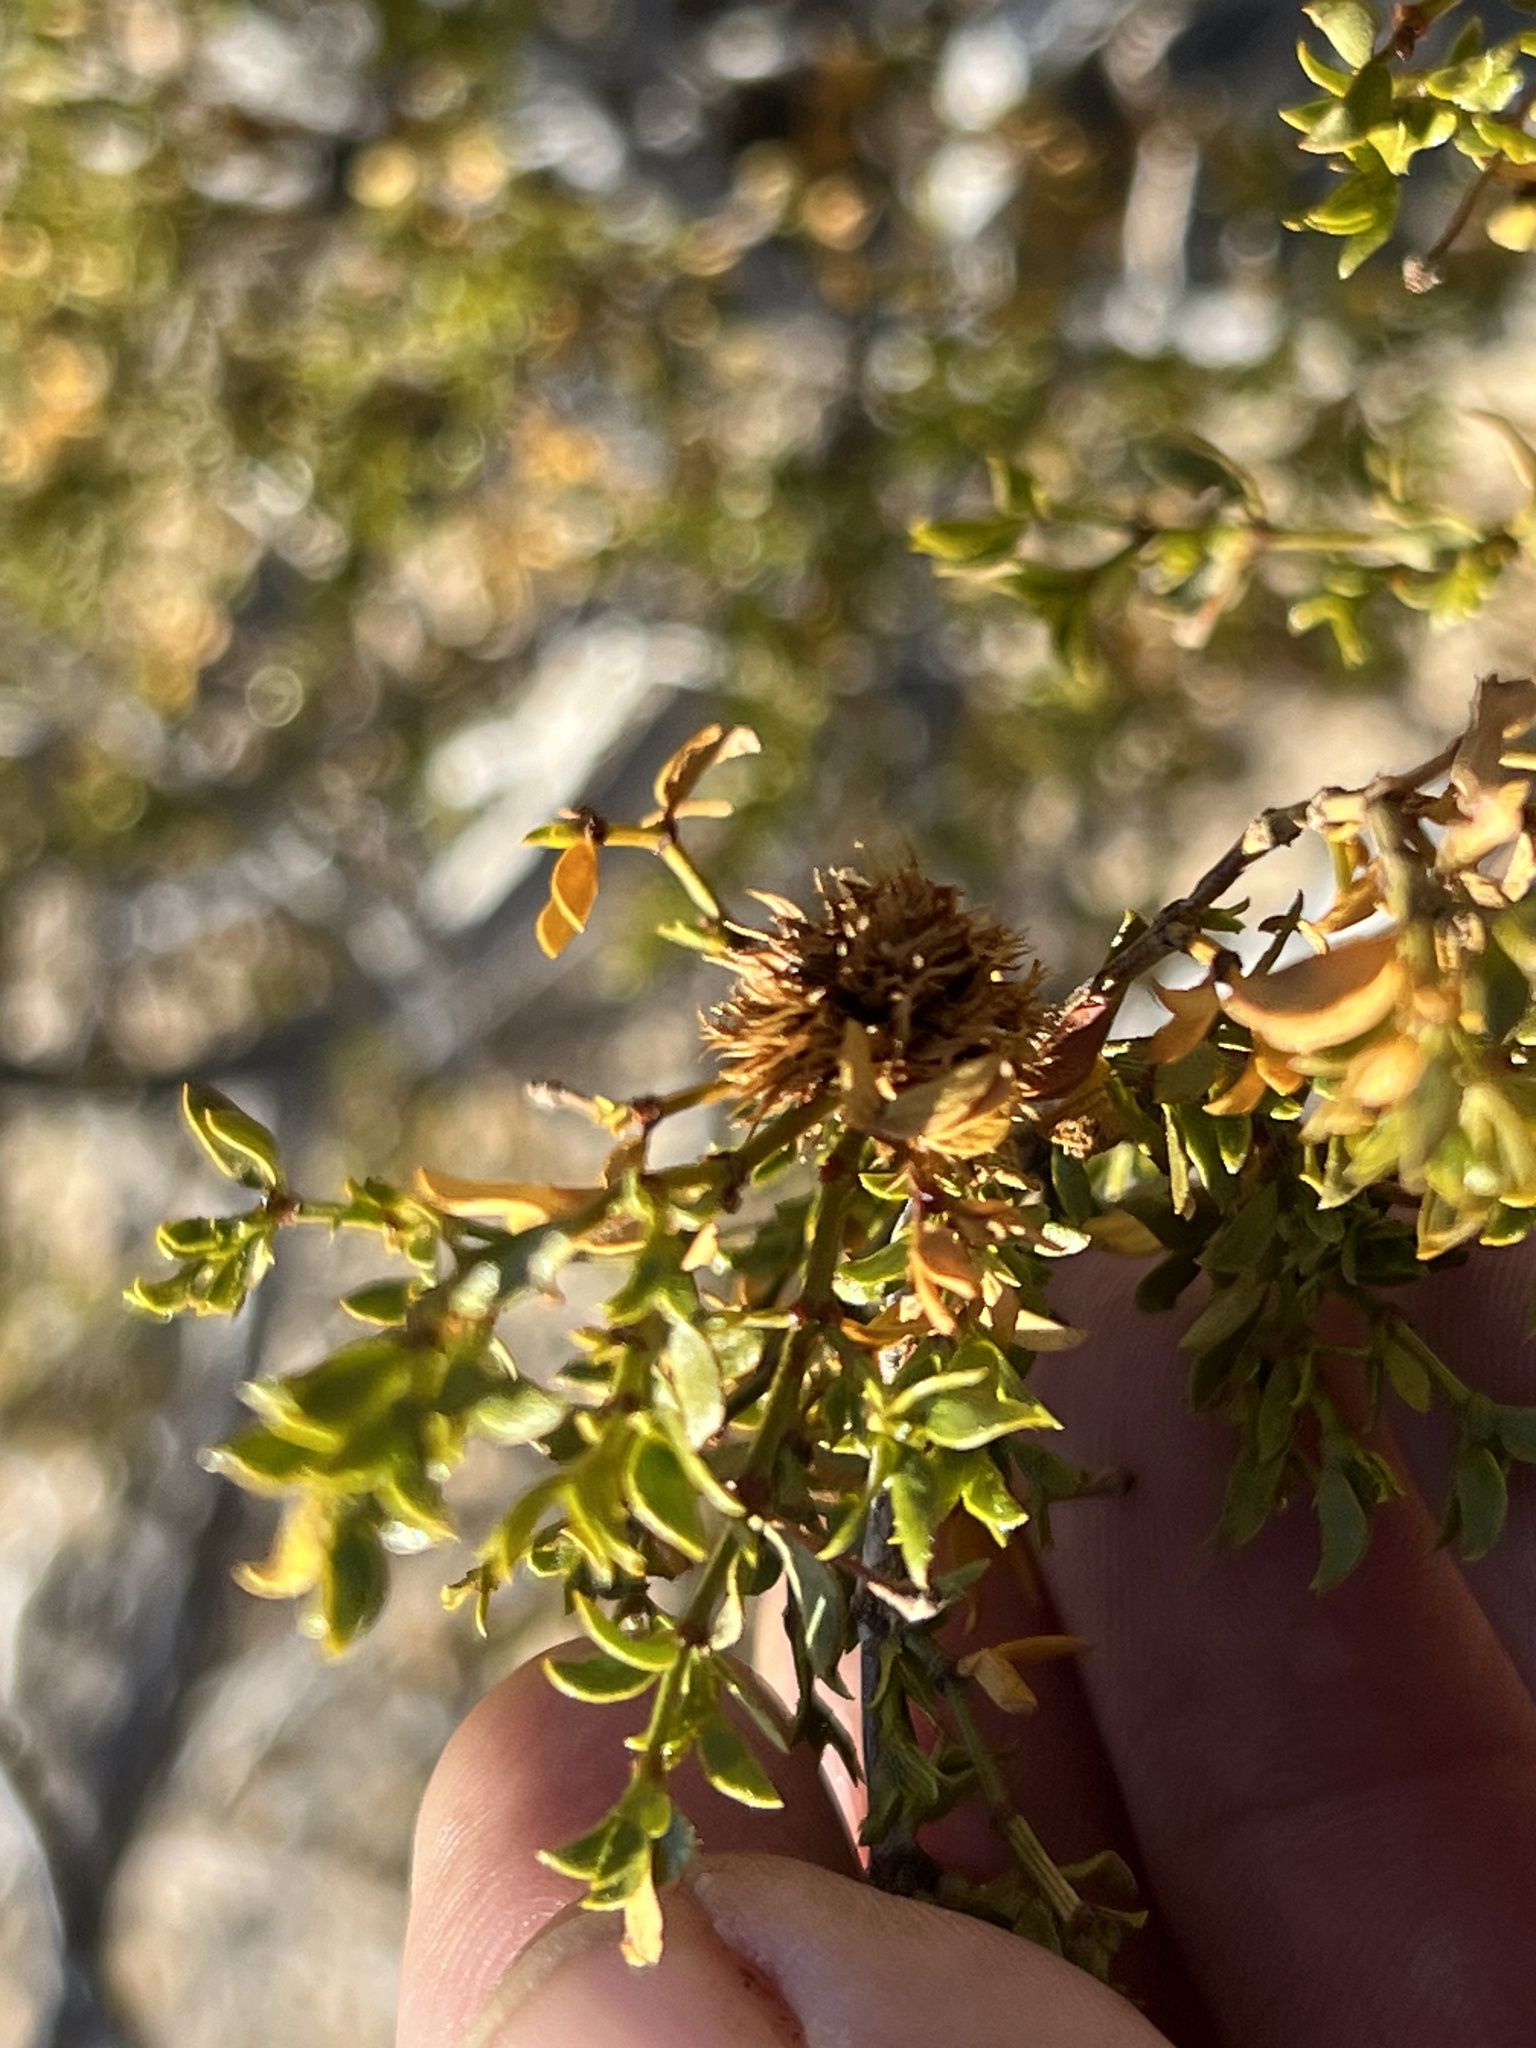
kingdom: Animalia
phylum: Arthropoda
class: Insecta
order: Diptera
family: Cecidomyiidae
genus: Asphondylia
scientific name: Asphondylia auripila
